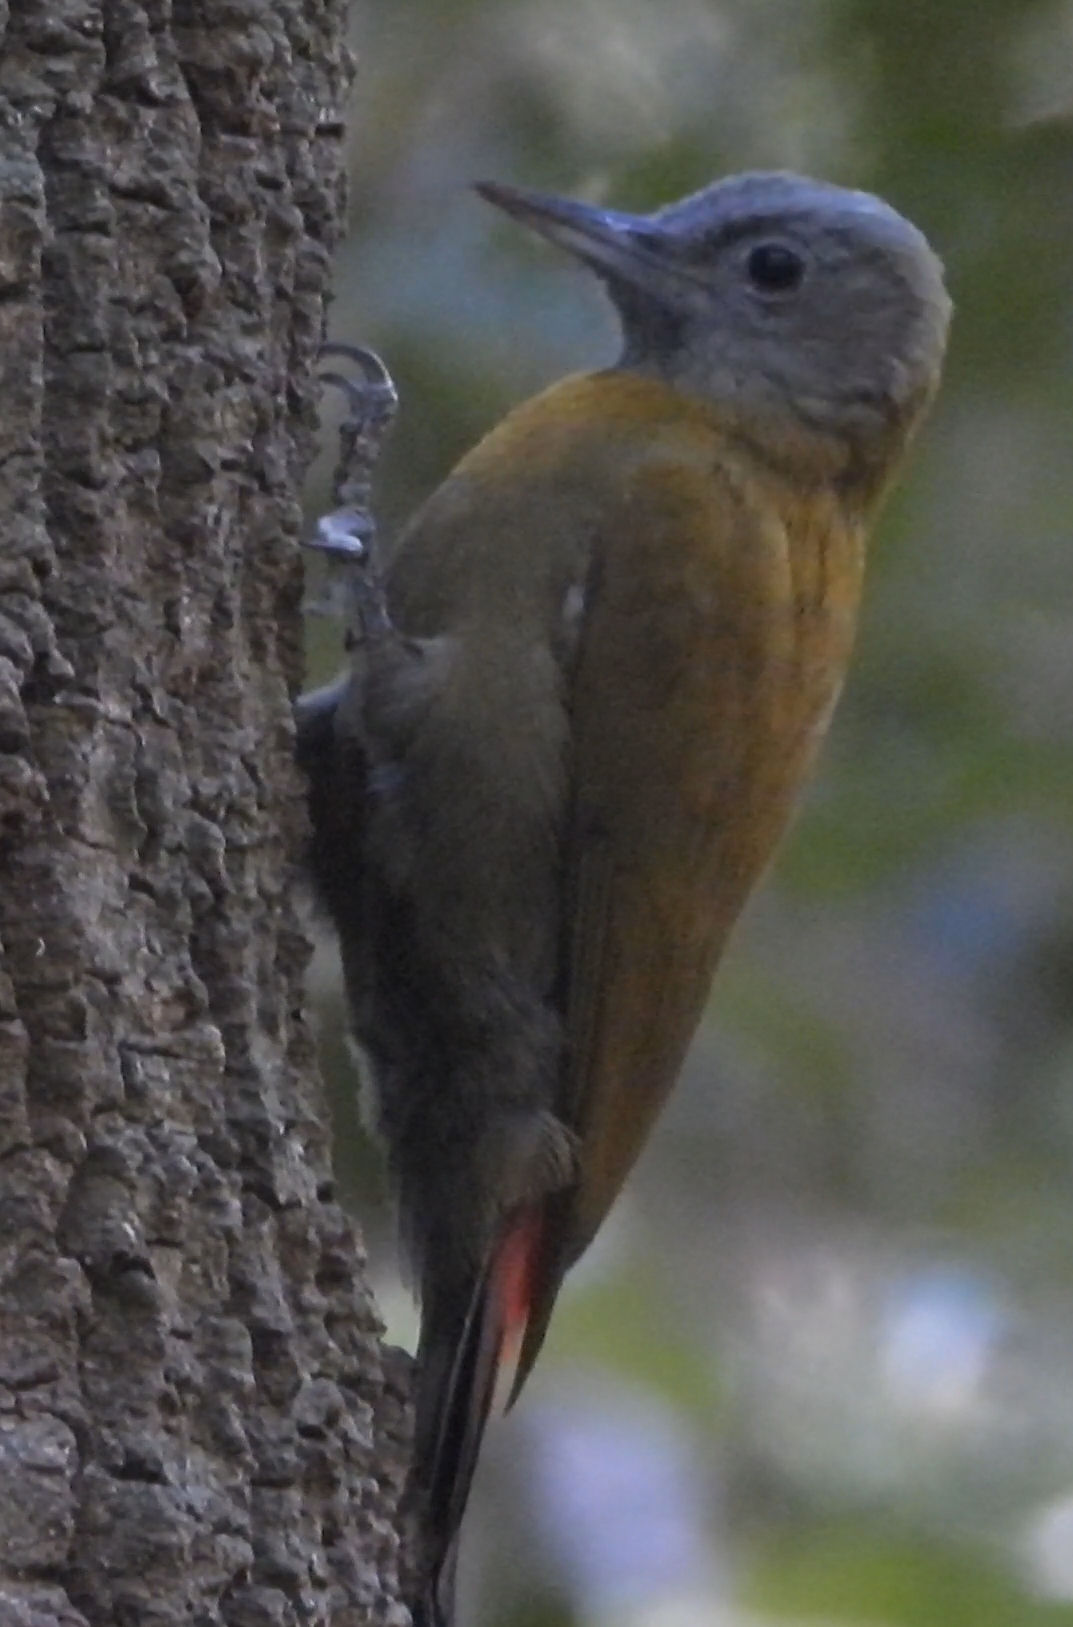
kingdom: Animalia
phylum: Chordata
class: Aves
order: Piciformes
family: Picidae
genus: Dendropicos
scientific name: Dendropicos griseocephalus
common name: Olive woodpecker
